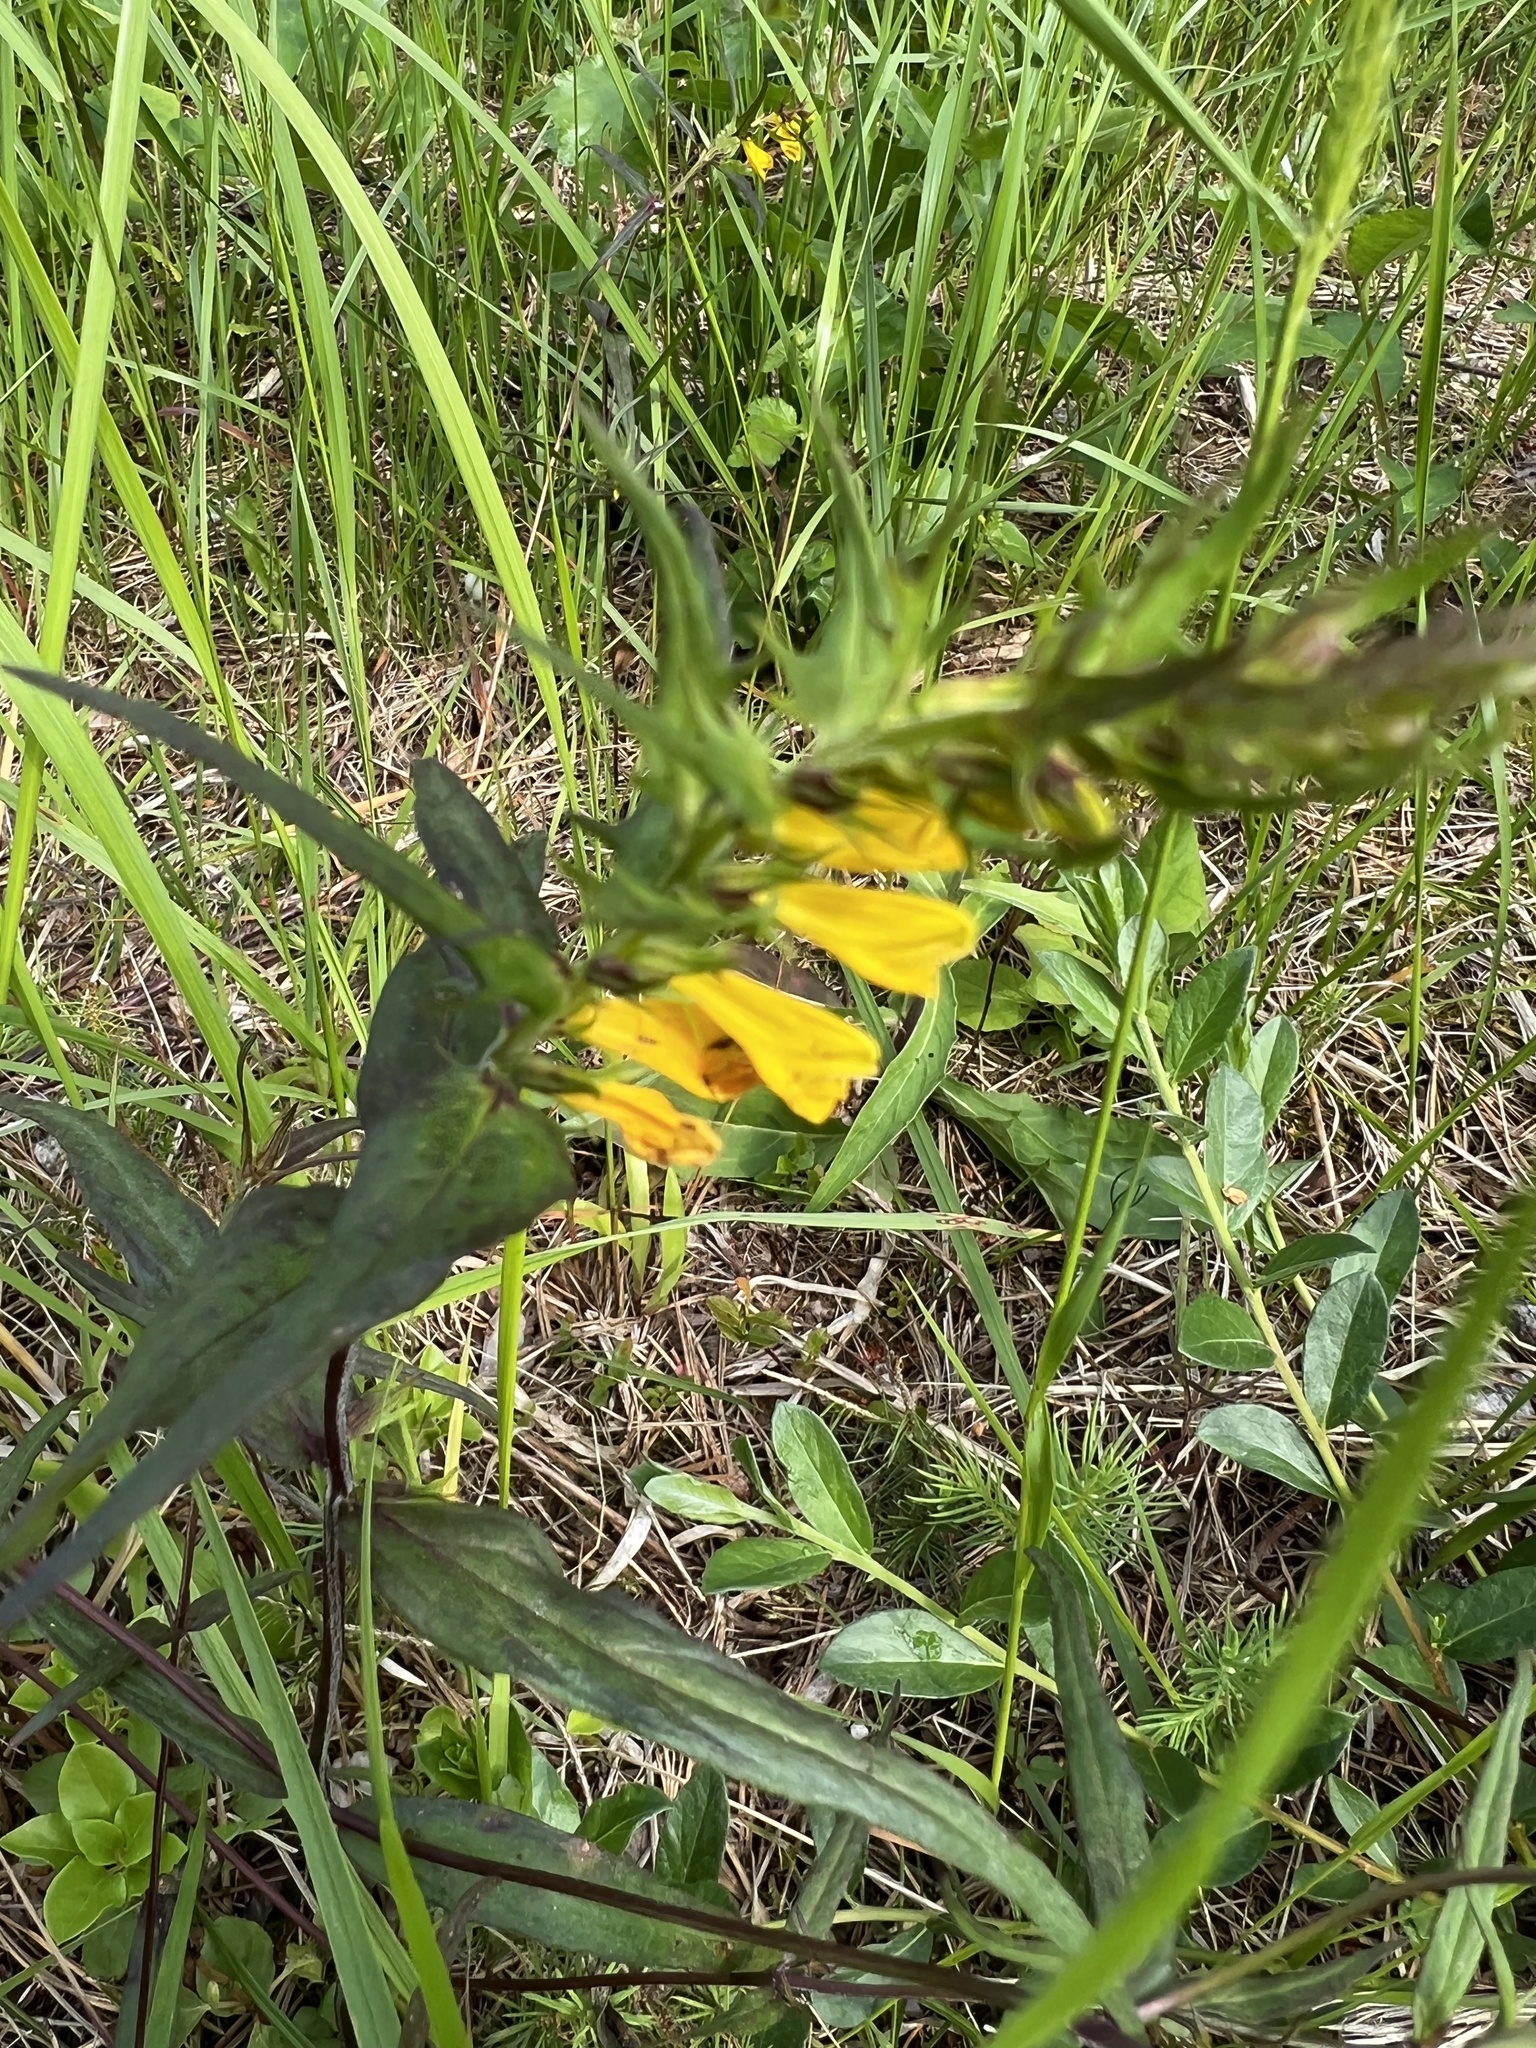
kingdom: Plantae
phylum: Tracheophyta
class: Magnoliopsida
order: Lamiales
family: Orobanchaceae
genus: Melampyrum
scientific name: Melampyrum pratense
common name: Common cow-wheat
